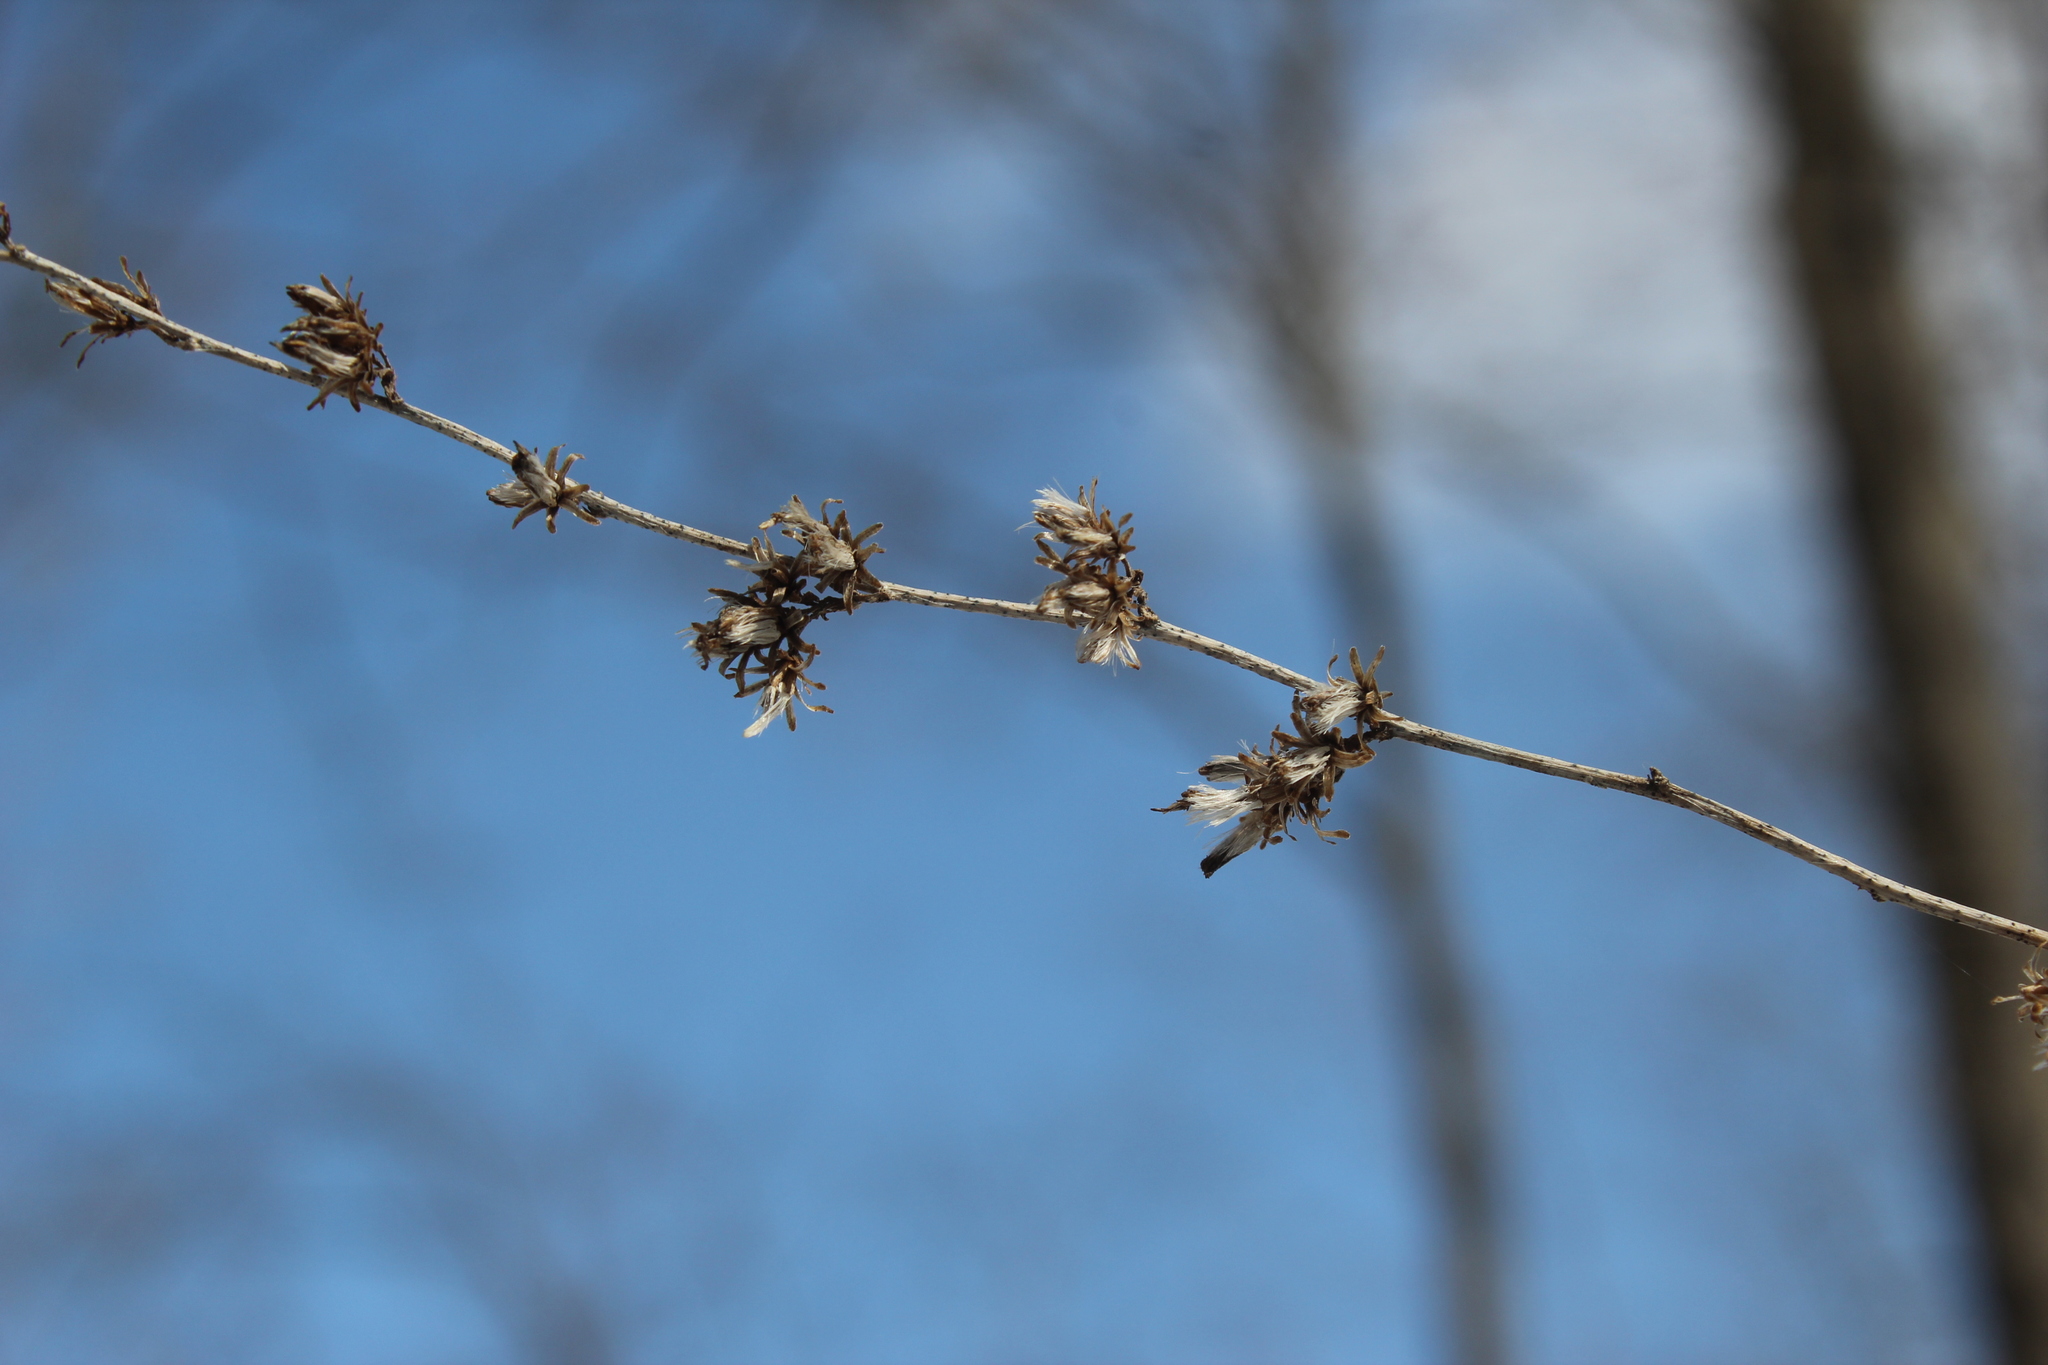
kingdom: Plantae
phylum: Tracheophyta
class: Magnoliopsida
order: Asterales
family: Asteraceae
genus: Solidago
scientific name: Solidago flexicaulis
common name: Zig-zag goldenrod
